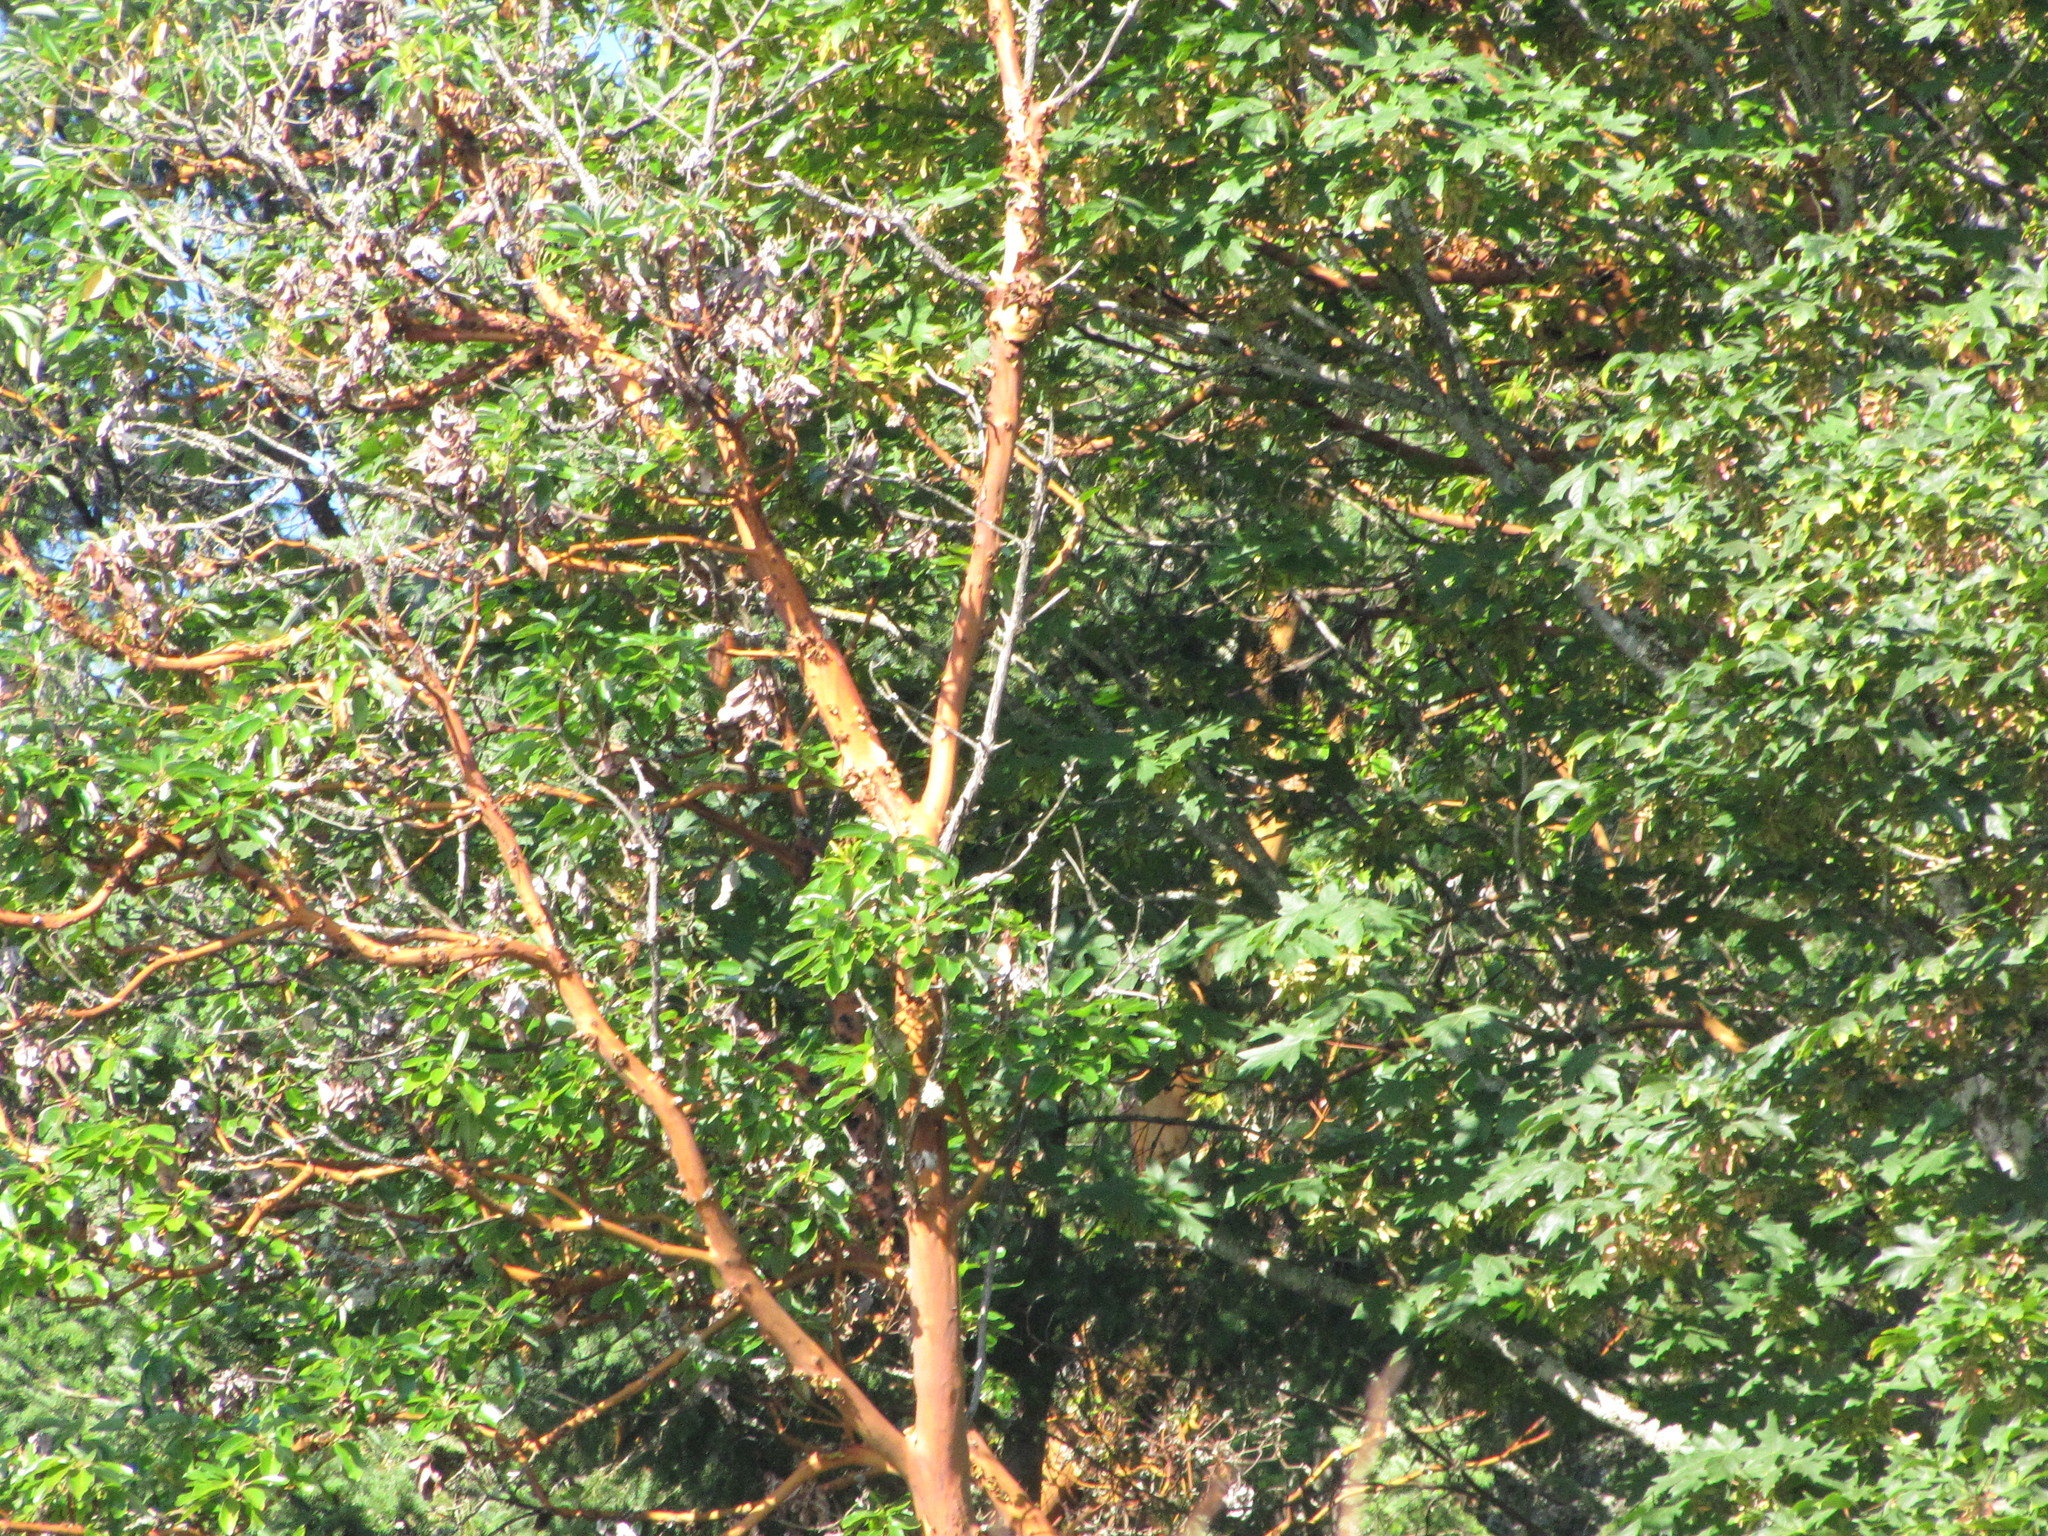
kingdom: Plantae
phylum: Tracheophyta
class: Magnoliopsida
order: Ericales
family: Ericaceae
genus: Arbutus
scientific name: Arbutus menziesii
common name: Pacific madrone
